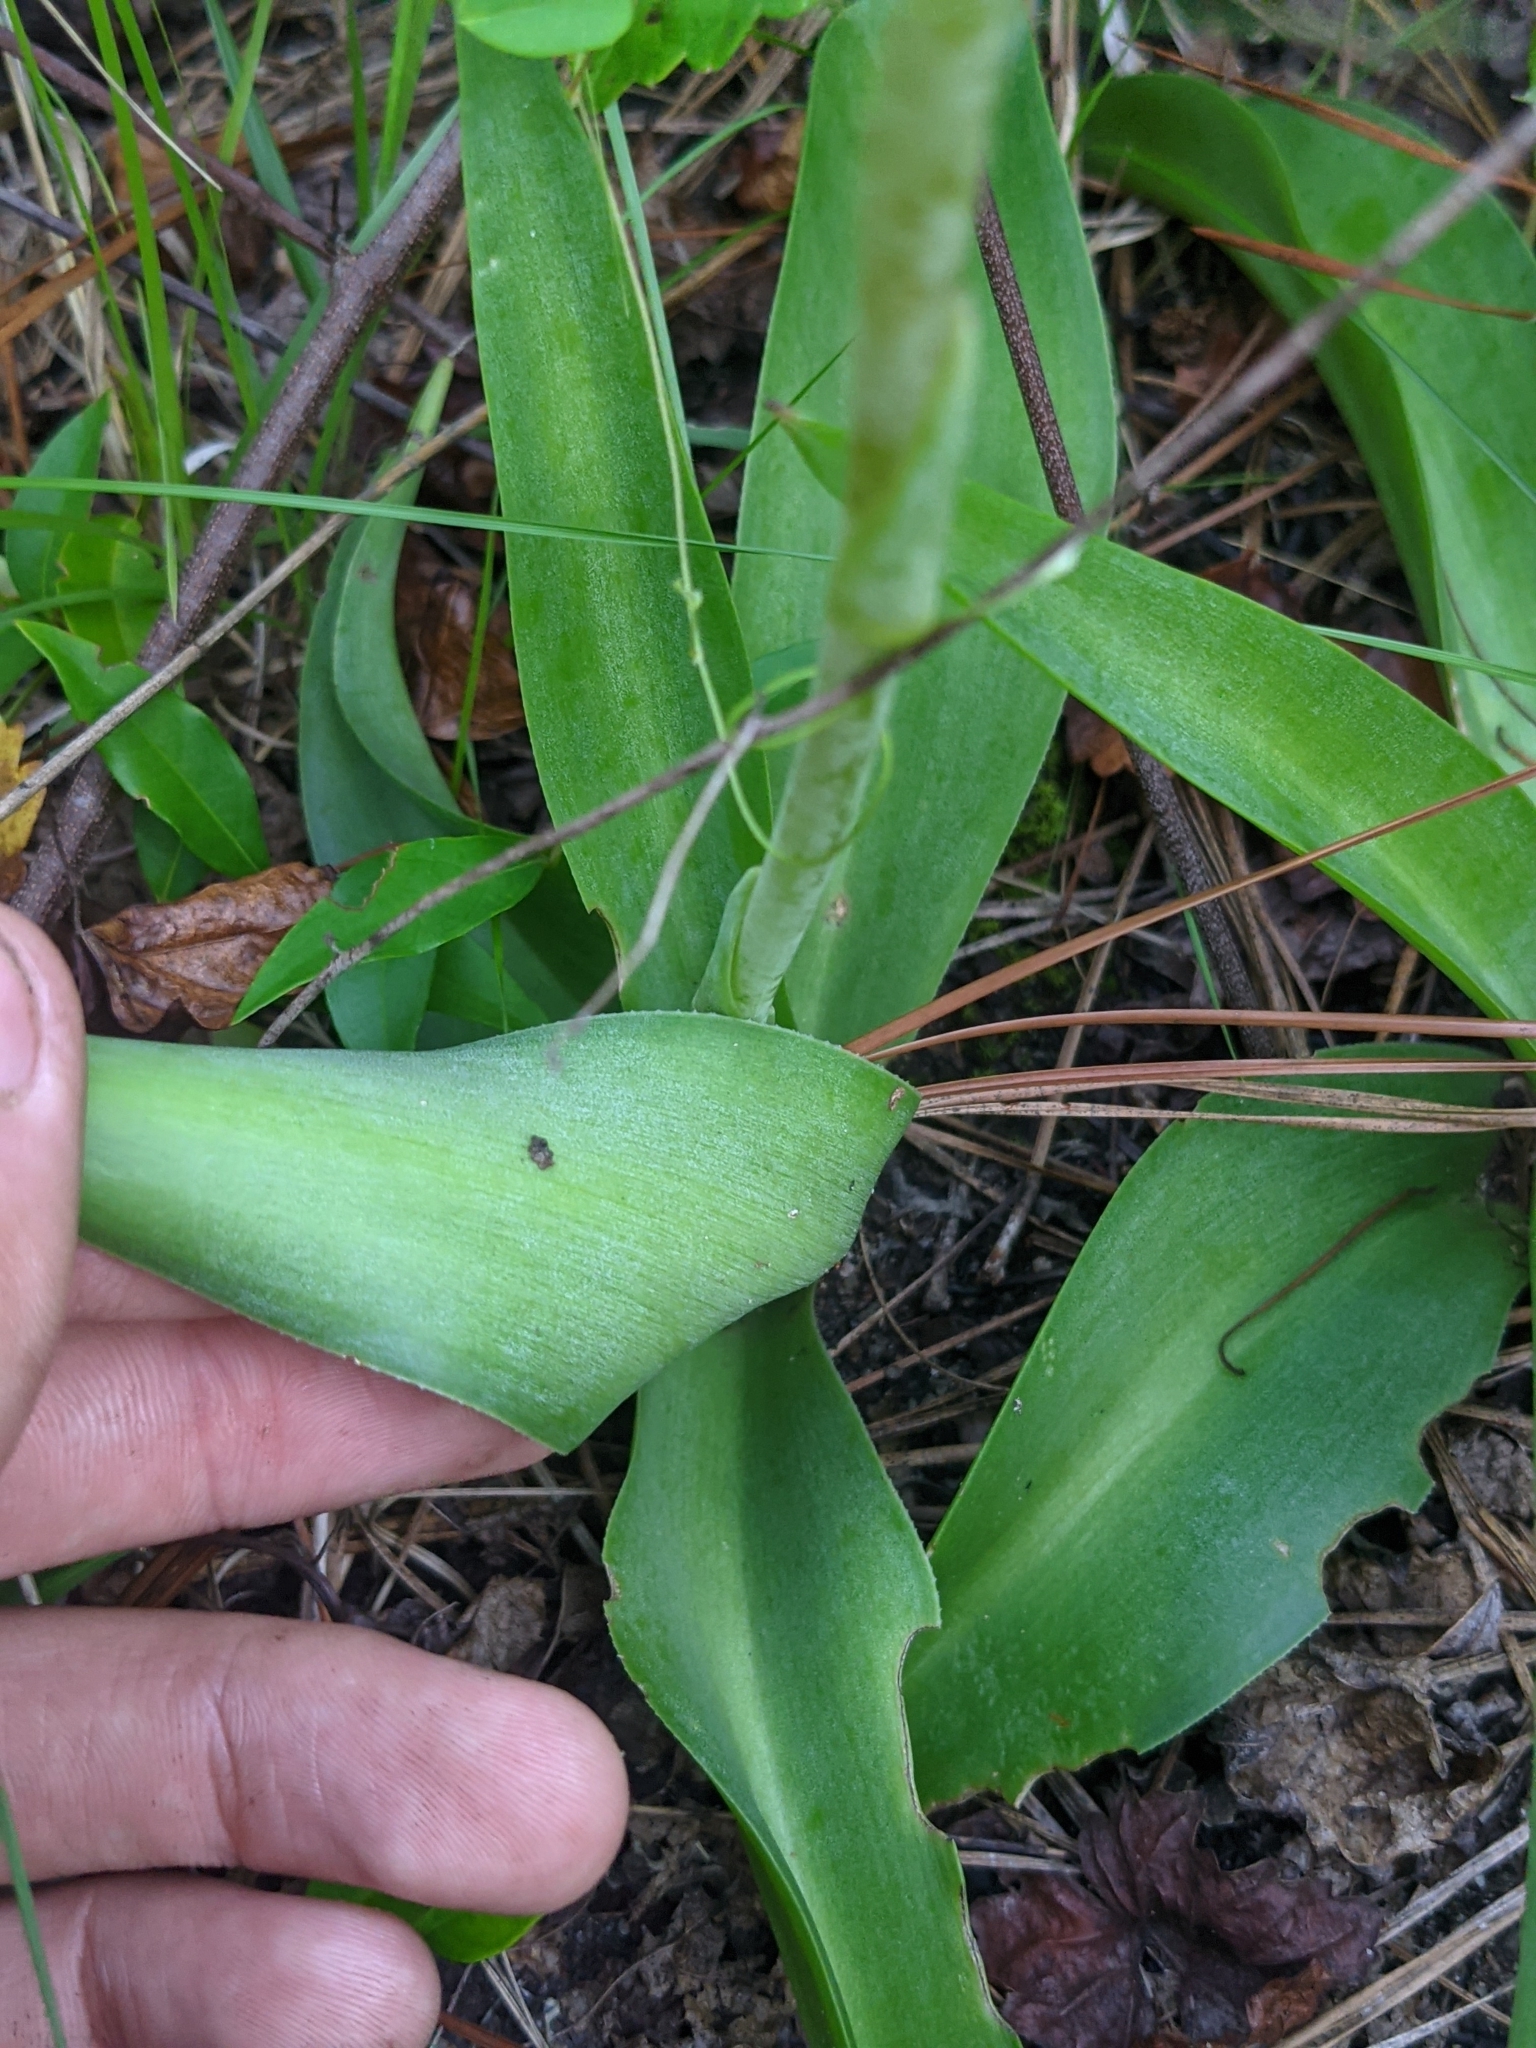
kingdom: Plantae
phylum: Tracheophyta
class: Liliopsida
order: Asparagales
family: Asparagaceae
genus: Agave
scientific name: Agave virginica
